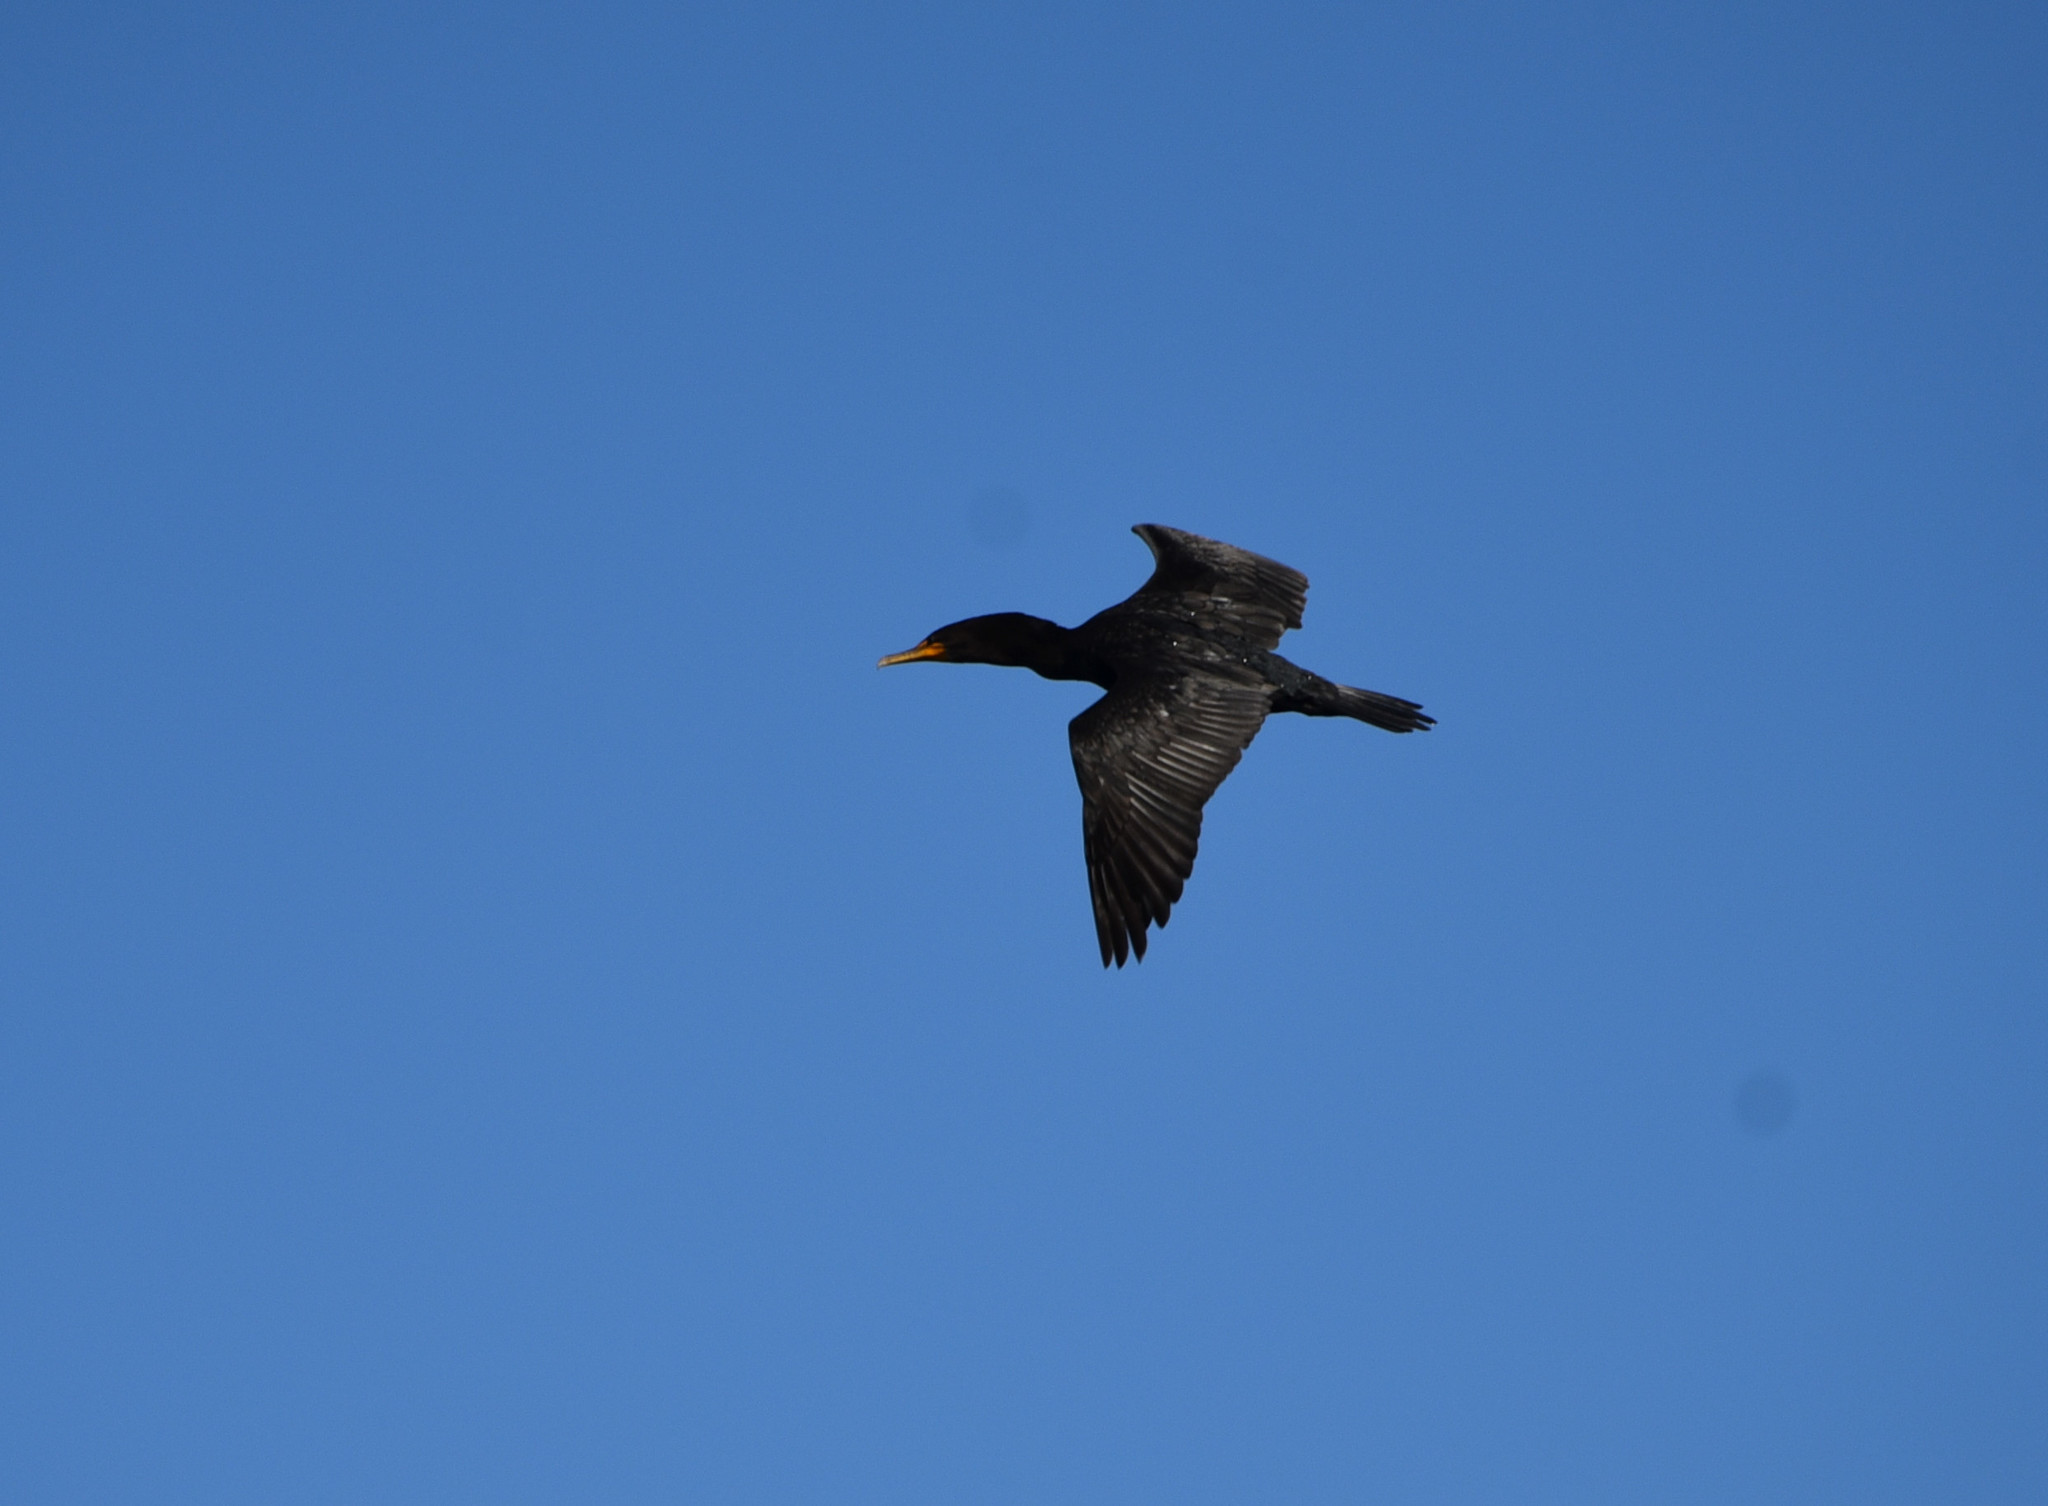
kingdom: Animalia
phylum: Chordata
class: Aves
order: Suliformes
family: Phalacrocoracidae
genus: Phalacrocorax
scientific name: Phalacrocorax auritus
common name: Double-crested cormorant
